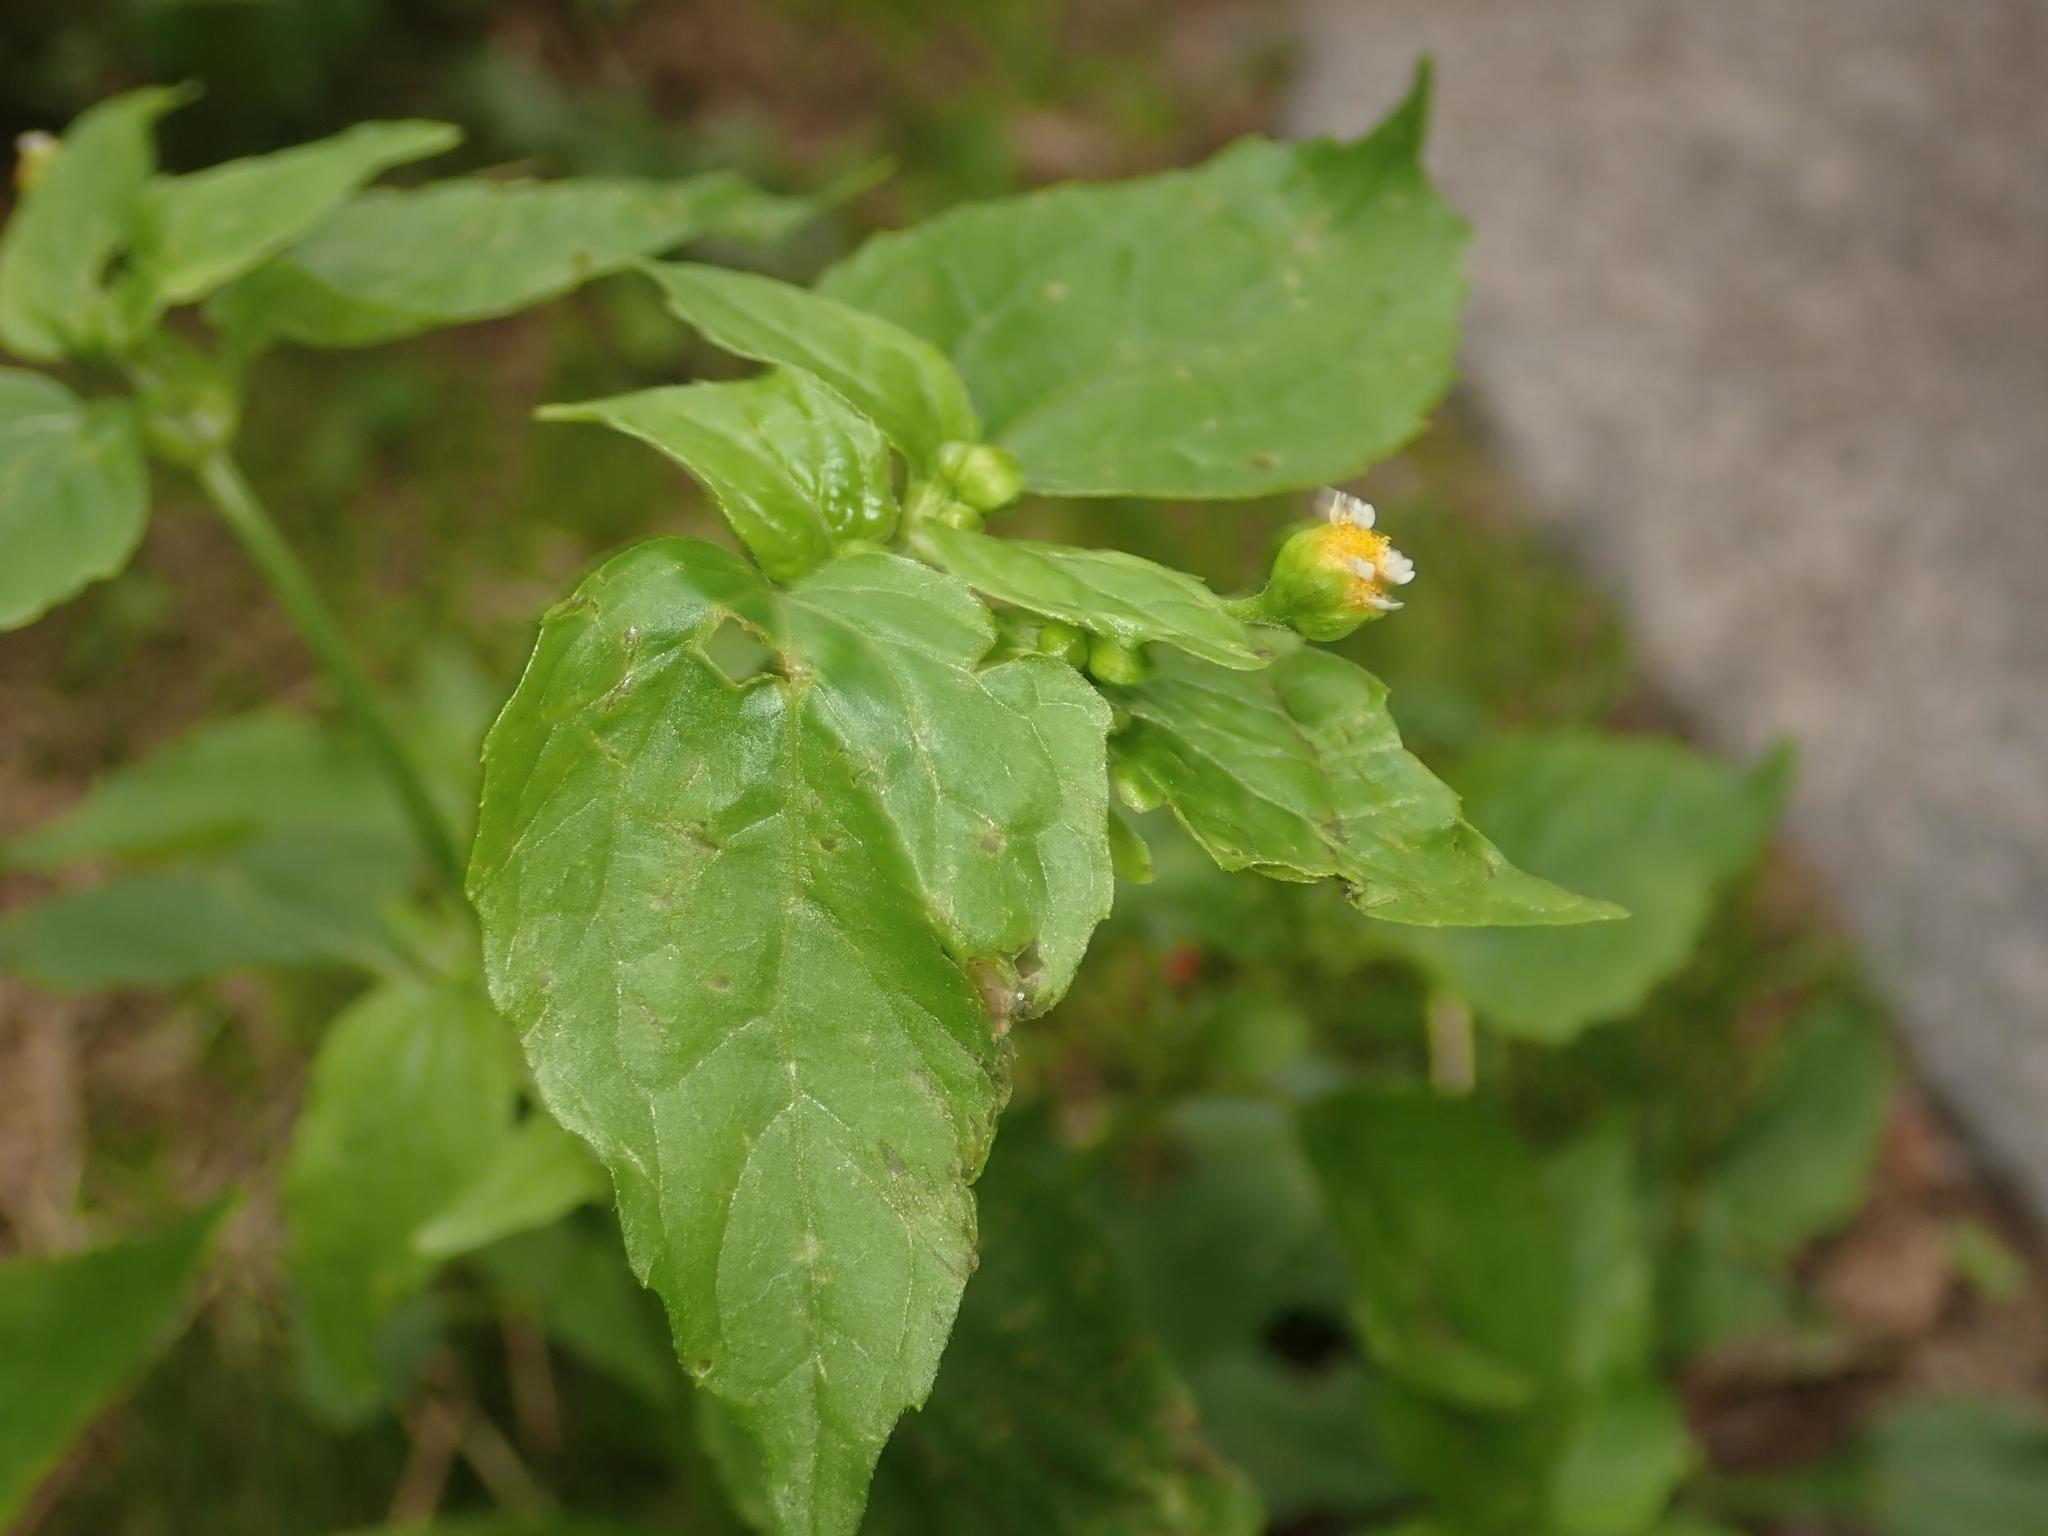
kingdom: Plantae
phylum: Tracheophyta
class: Magnoliopsida
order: Asterales
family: Asteraceae
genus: Galinsoga
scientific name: Galinsoga parviflora
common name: Gallant soldier
